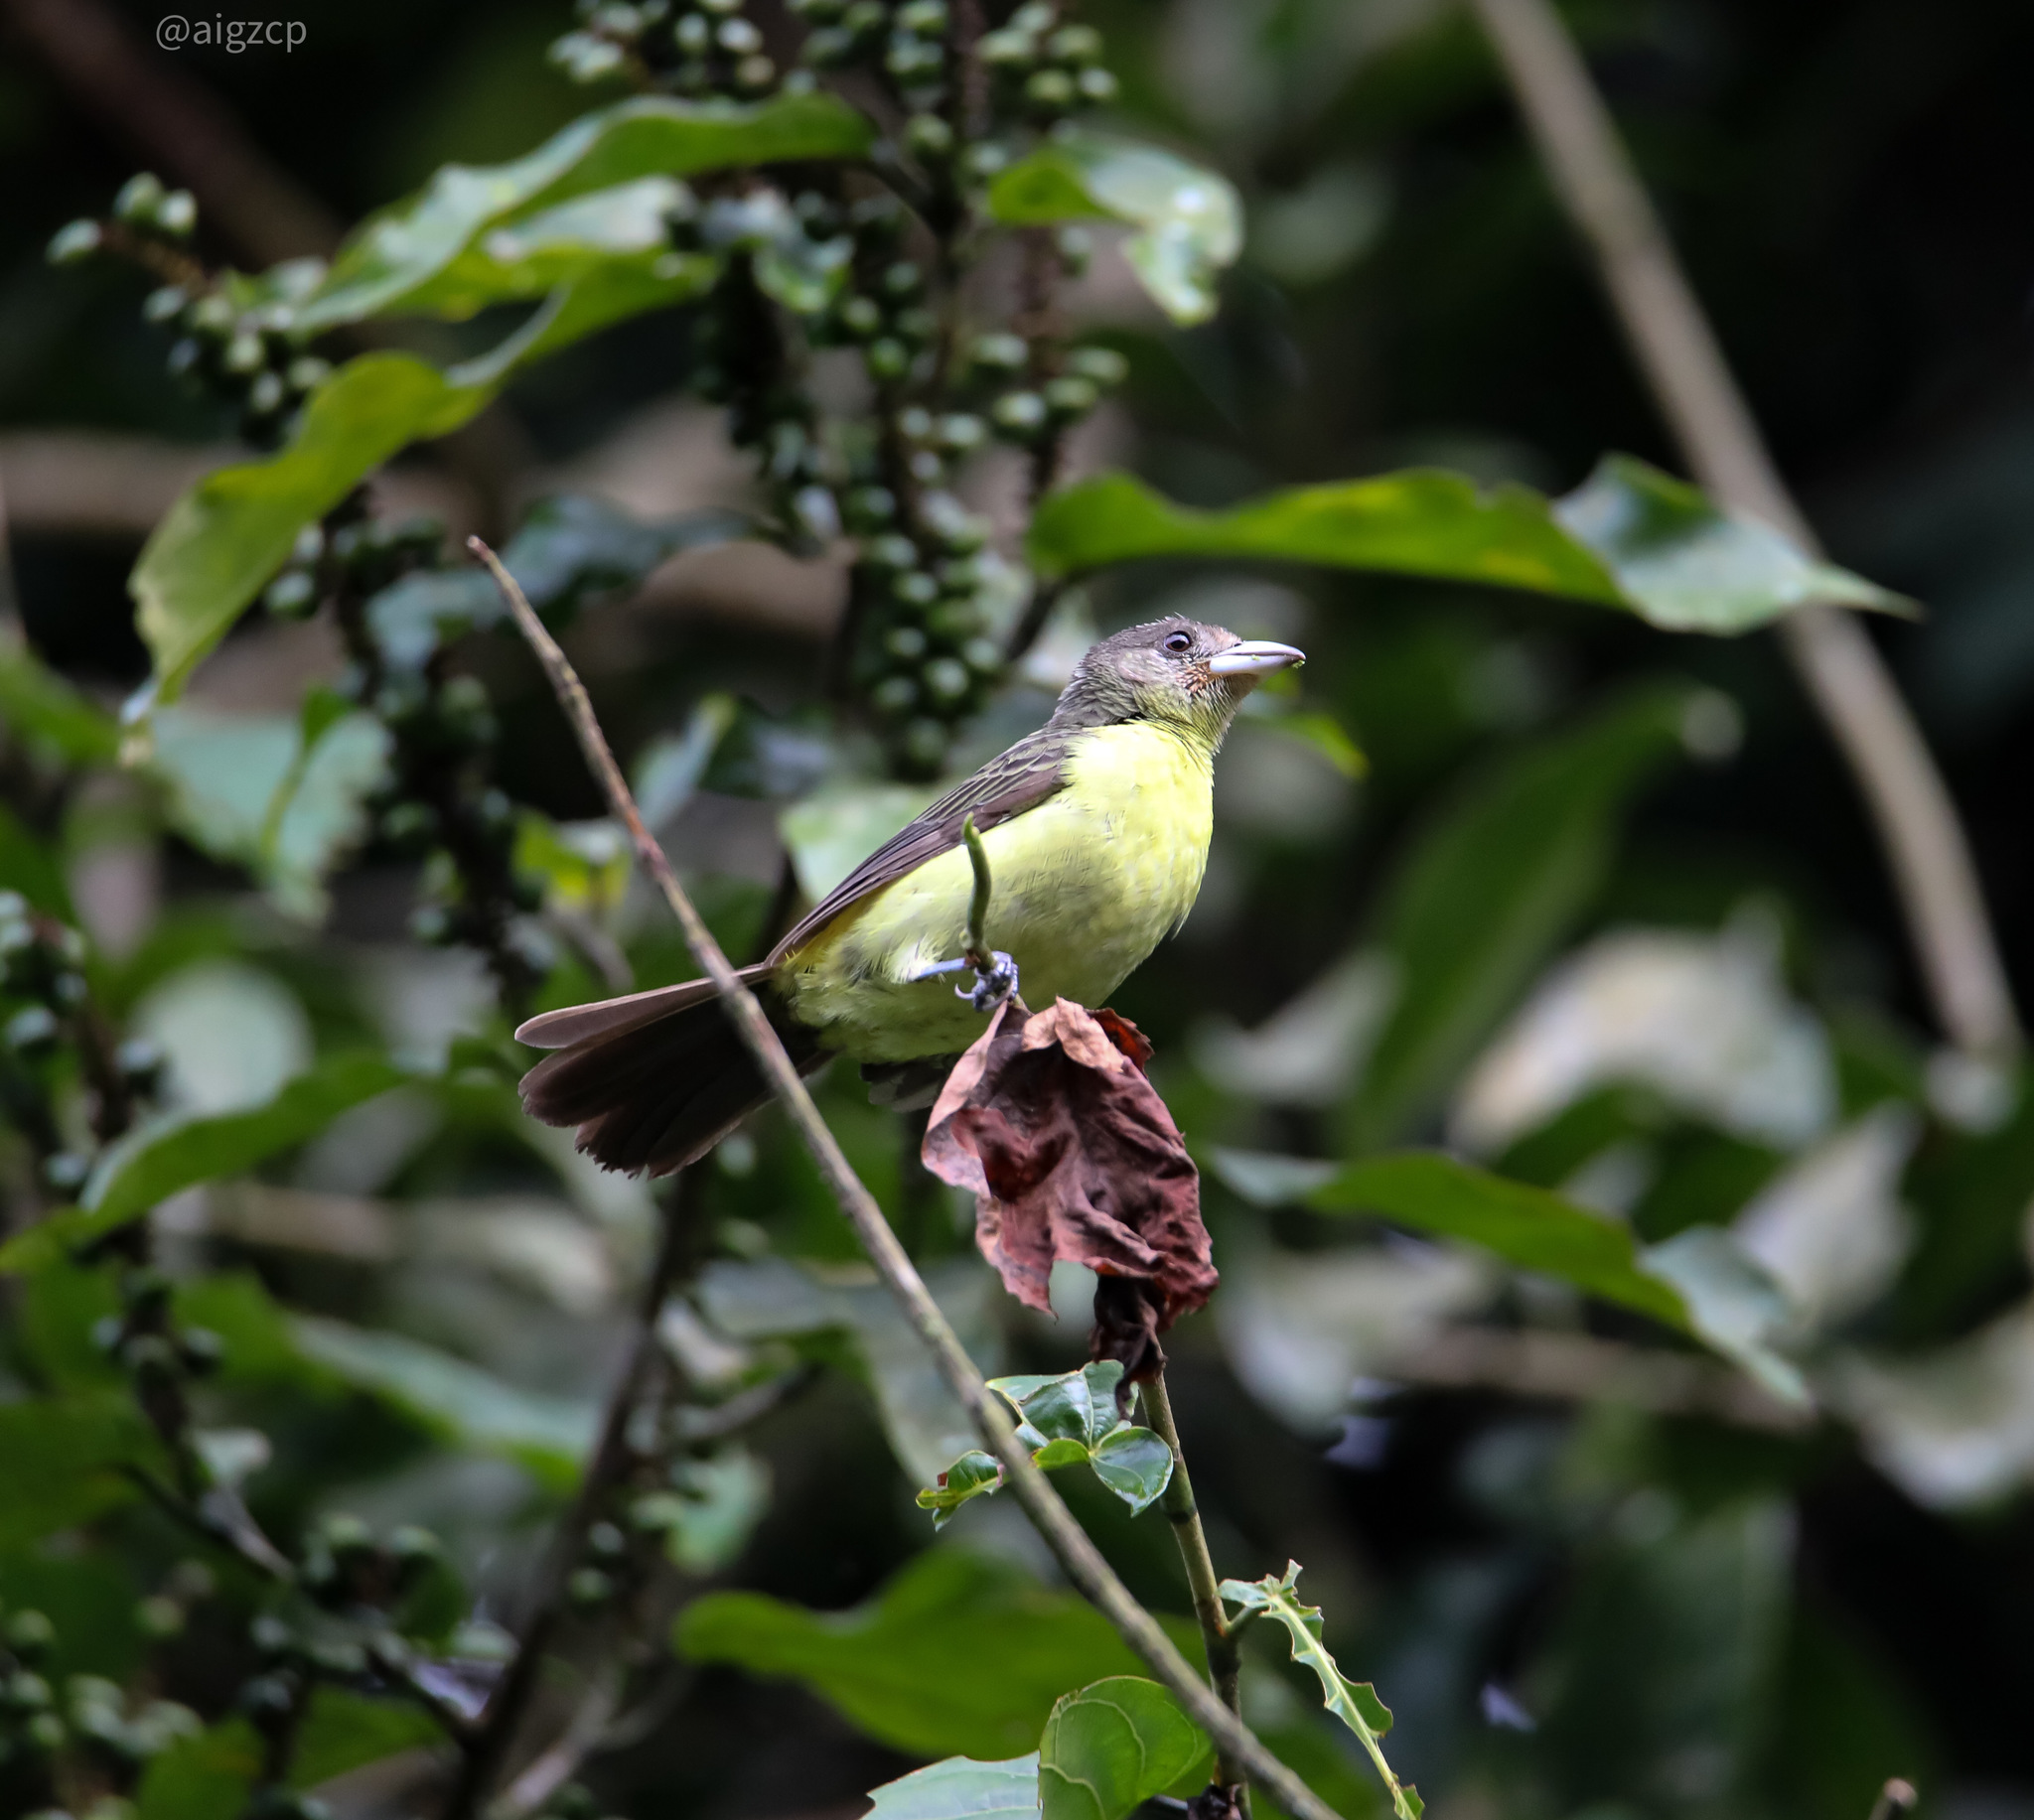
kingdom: Animalia
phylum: Chordata
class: Aves
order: Passeriformes
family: Thraupidae
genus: Ramphocelus
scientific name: Ramphocelus icteronotus
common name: Lemon-rumped tanager
